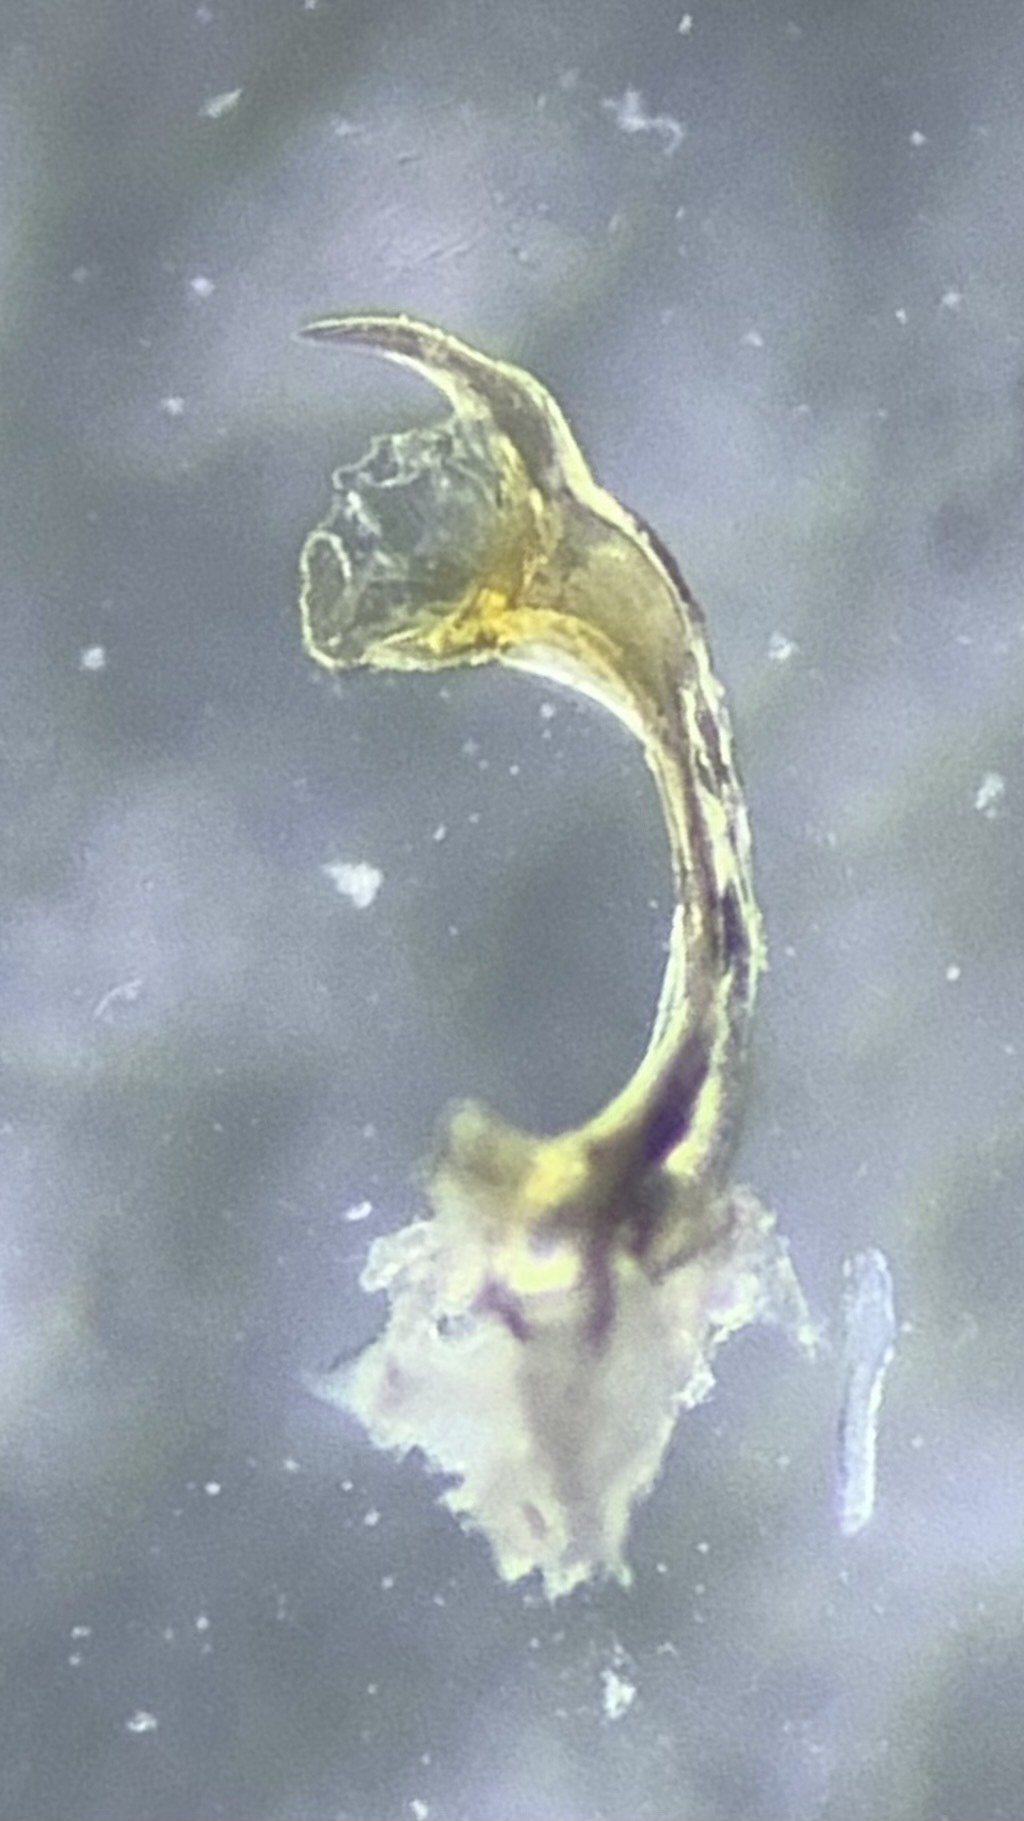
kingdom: Animalia
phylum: Arthropoda
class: Diplopoda
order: Chordeumatida
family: Craspedosomatidae
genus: Pyrgocyphosoma
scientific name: Pyrgocyphosoma arvernum
